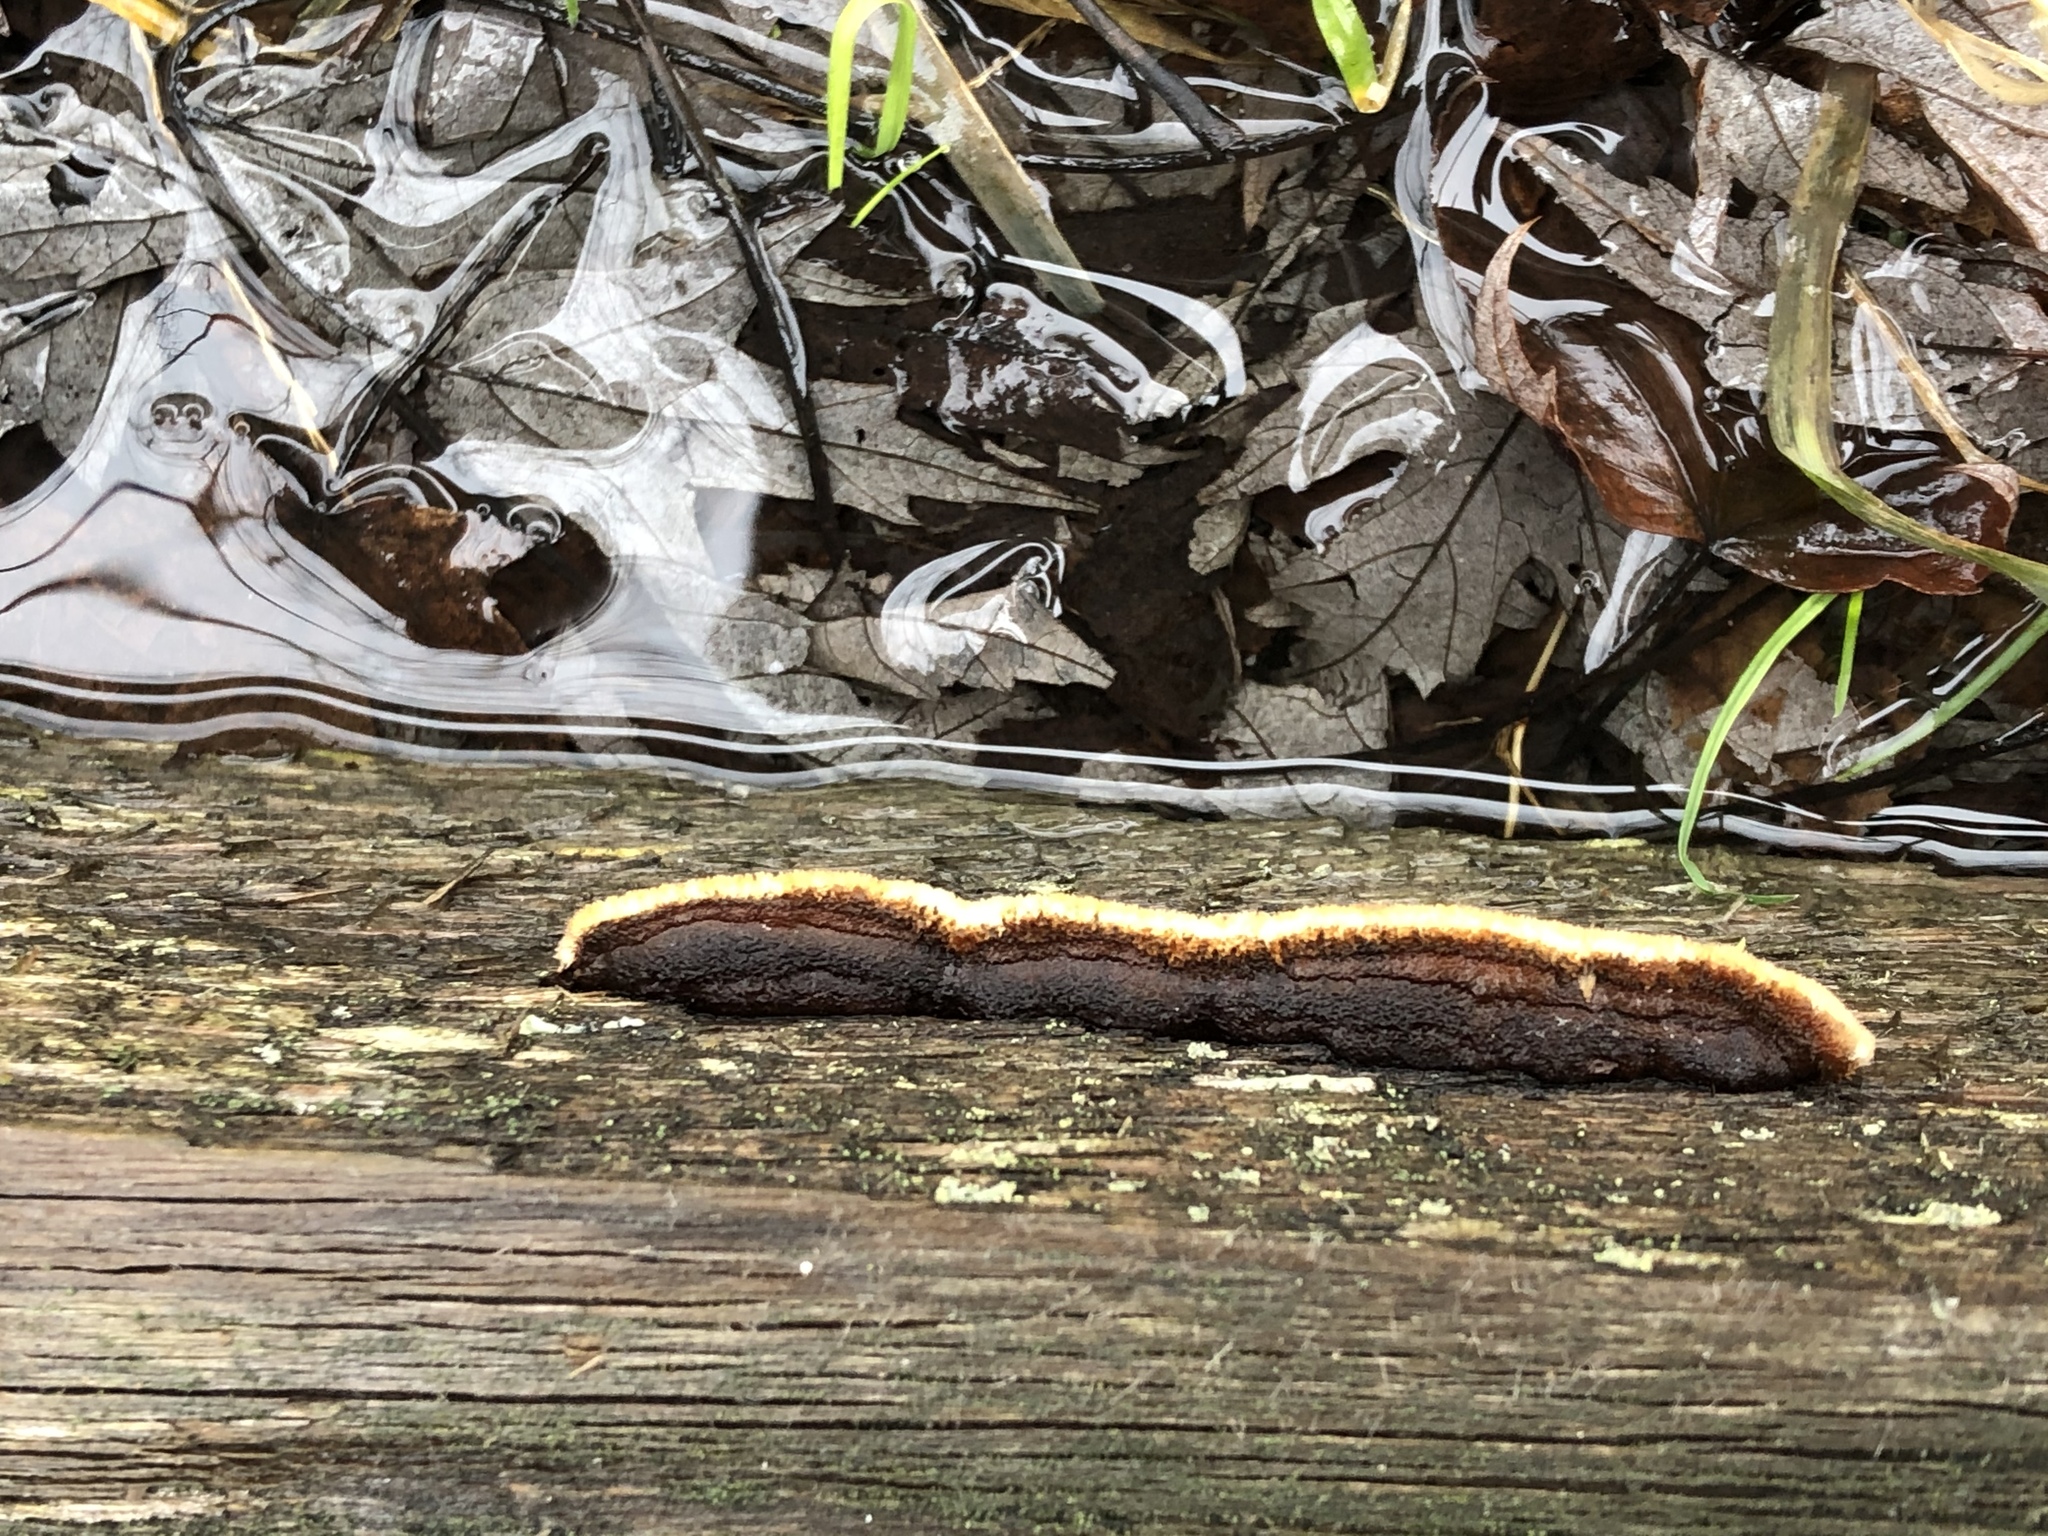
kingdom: Fungi
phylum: Basidiomycota
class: Agaricomycetes
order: Gloeophyllales
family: Gloeophyllaceae
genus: Gloeophyllum
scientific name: Gloeophyllum sepiarium
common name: Conifer mazegill
